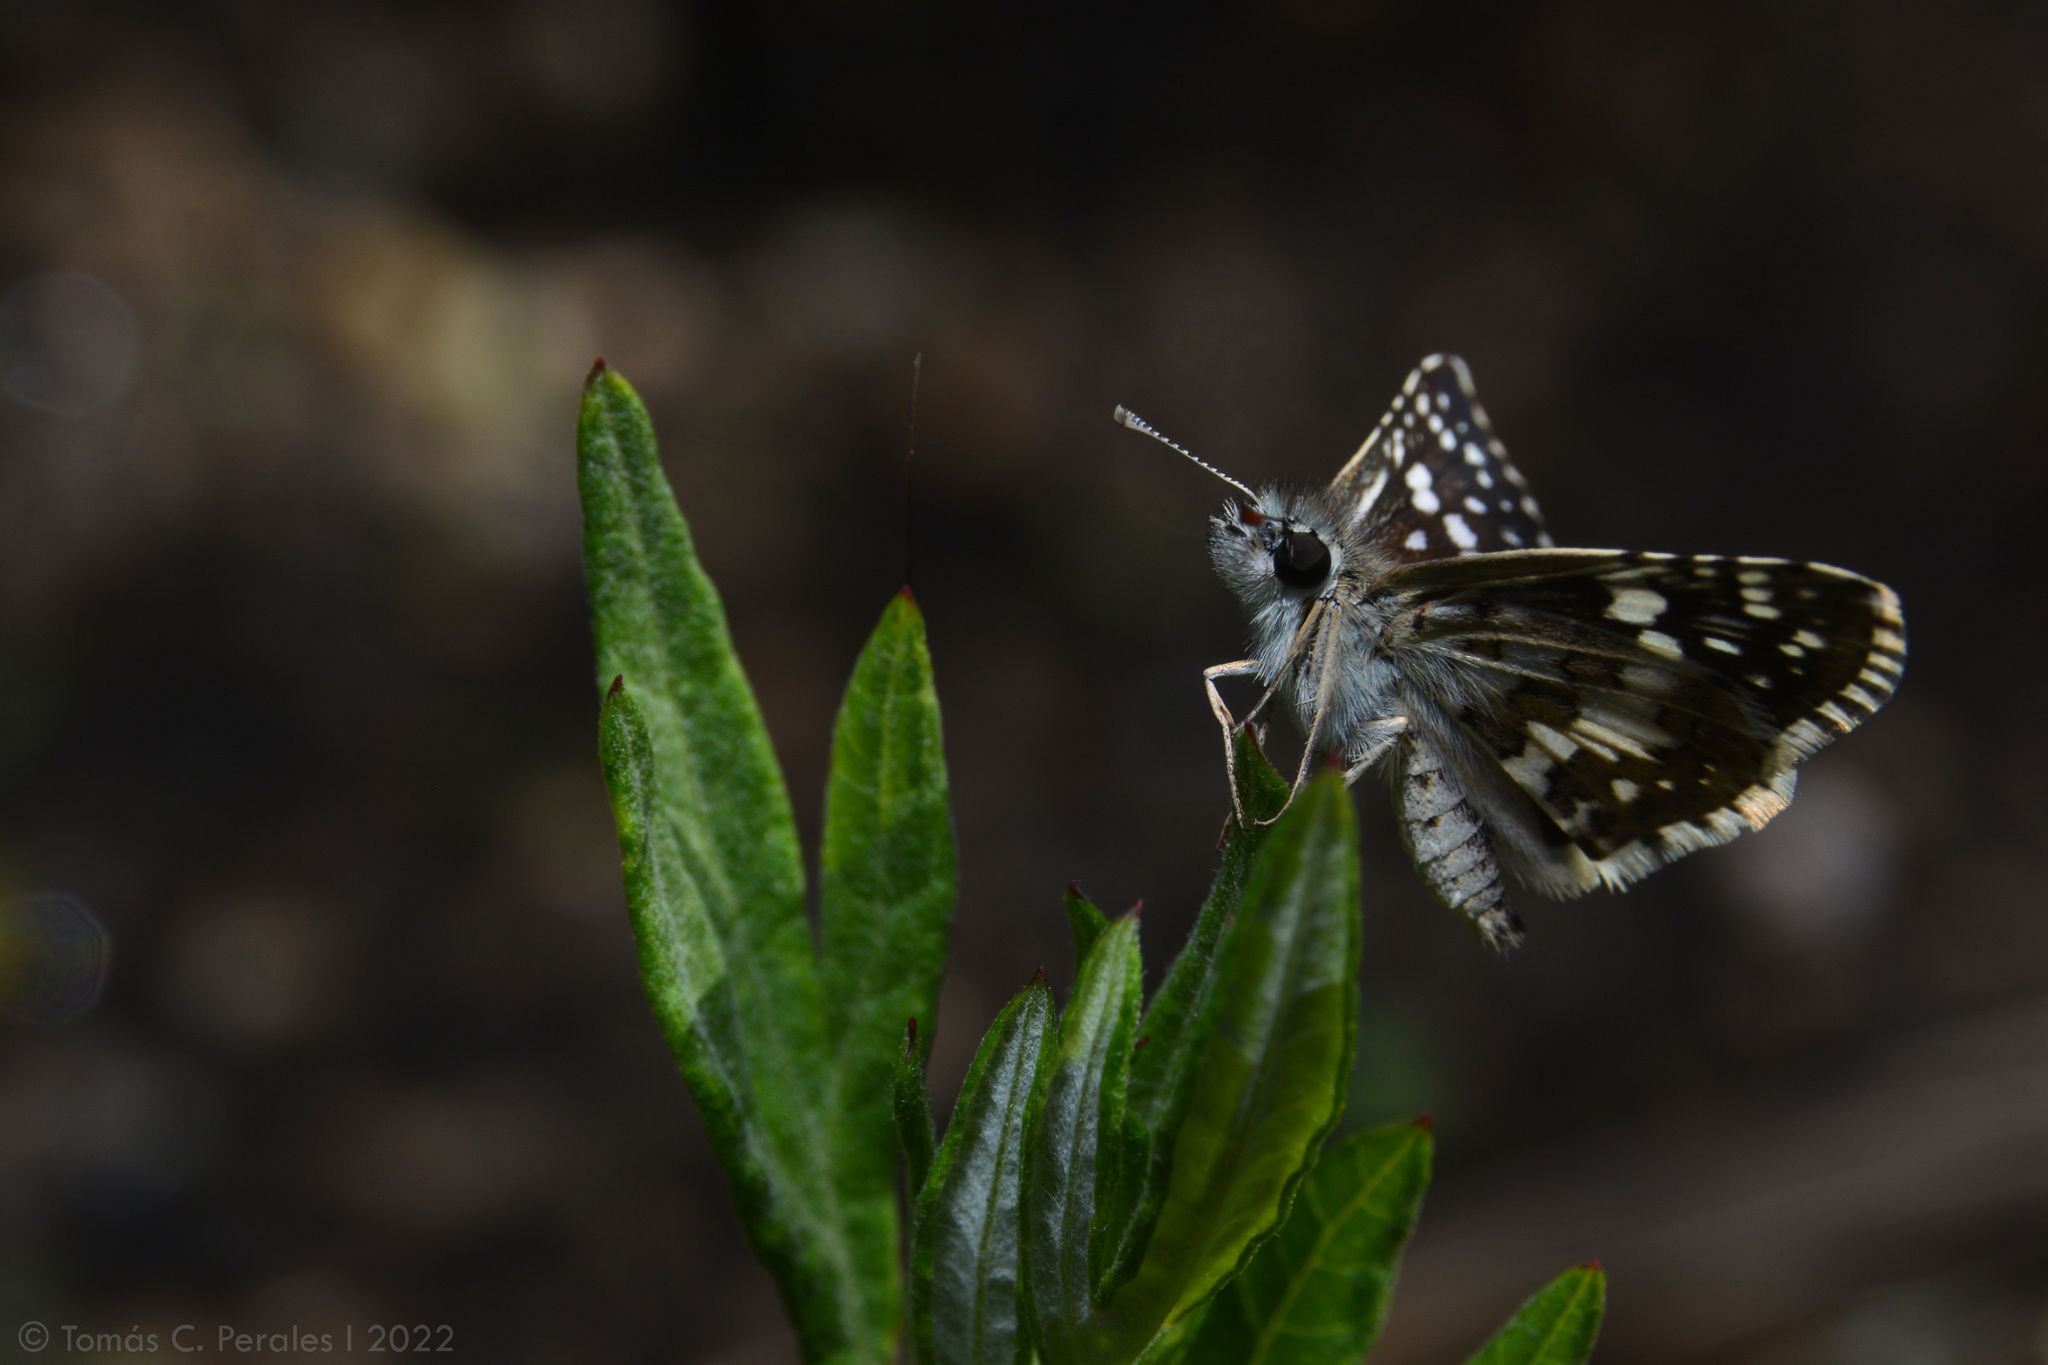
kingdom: Animalia
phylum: Arthropoda
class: Insecta
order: Lepidoptera
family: Hesperiidae
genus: Burnsius
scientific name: Burnsius orcynoides
